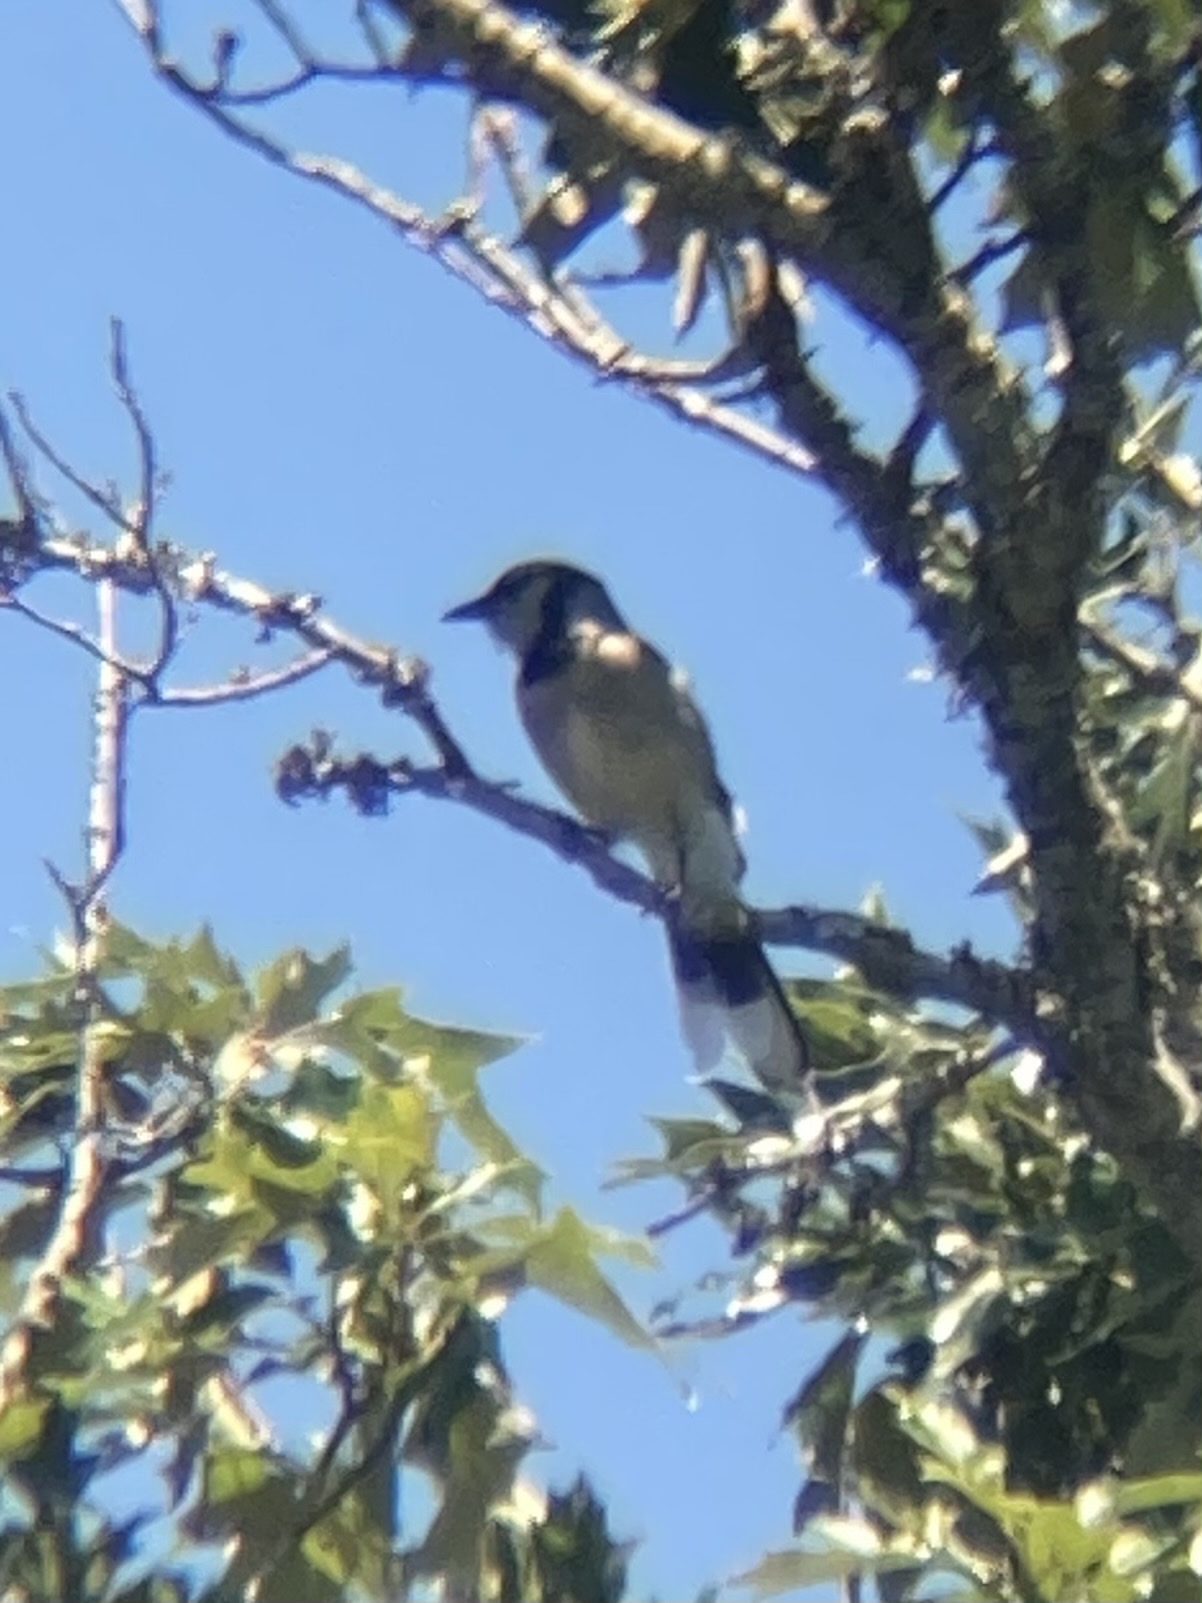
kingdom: Animalia
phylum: Chordata
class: Aves
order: Passeriformes
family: Corvidae
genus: Cyanocitta
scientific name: Cyanocitta cristata
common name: Blue jay
